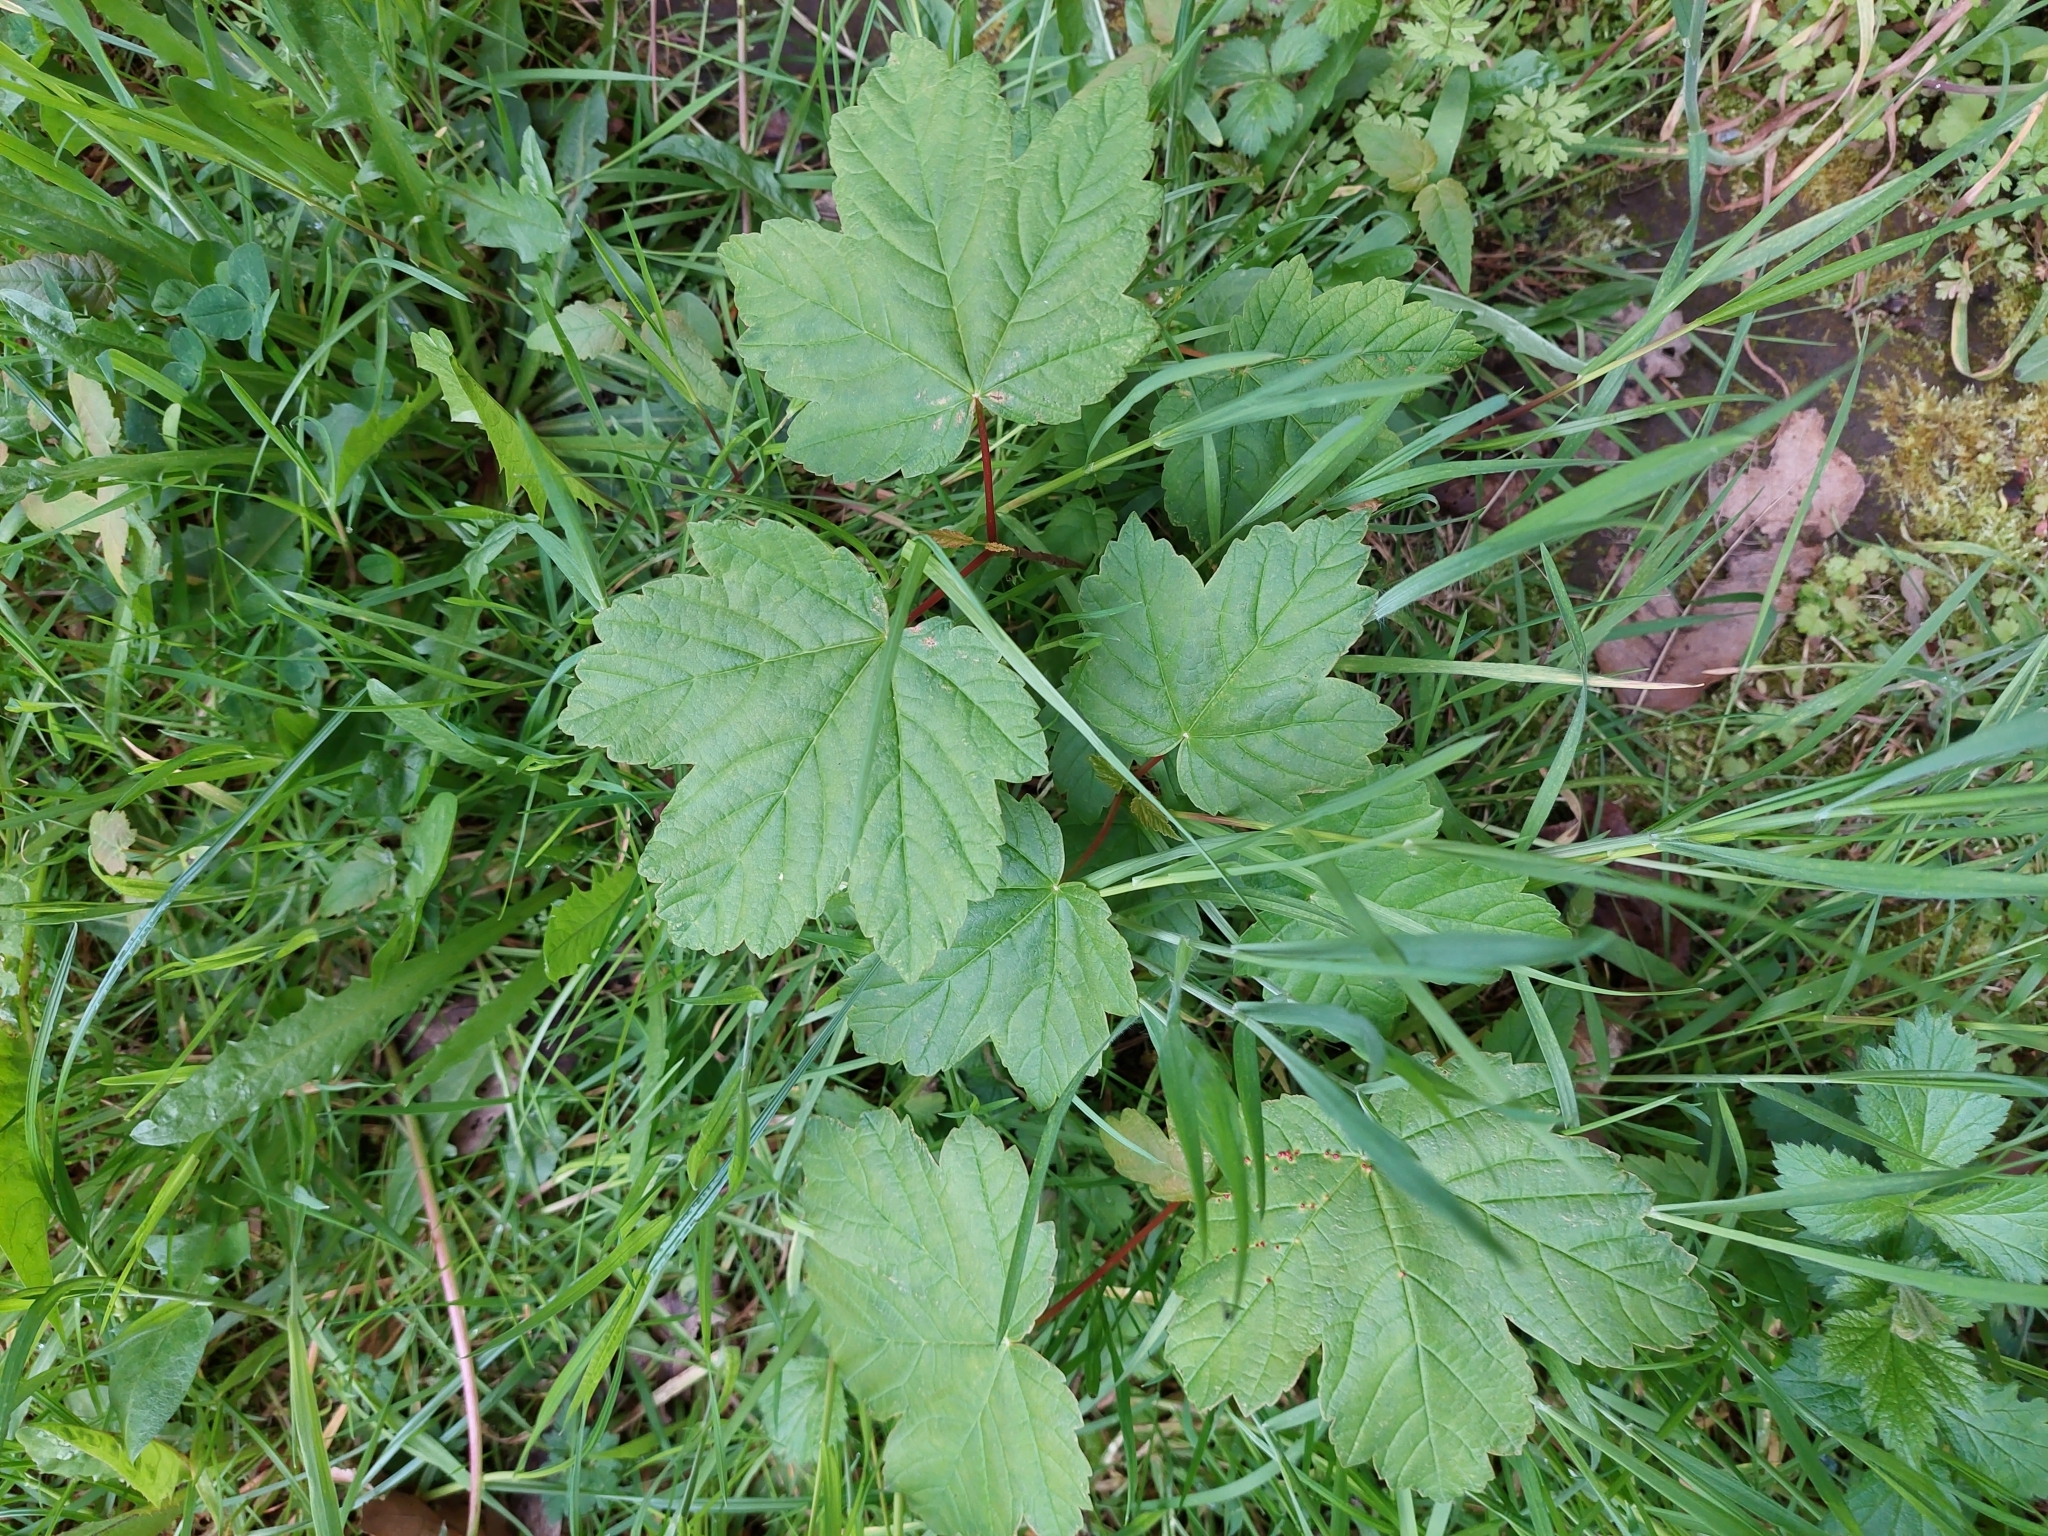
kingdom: Plantae
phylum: Tracheophyta
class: Magnoliopsida
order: Sapindales
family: Sapindaceae
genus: Acer
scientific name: Acer pseudoplatanus
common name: Sycamore
